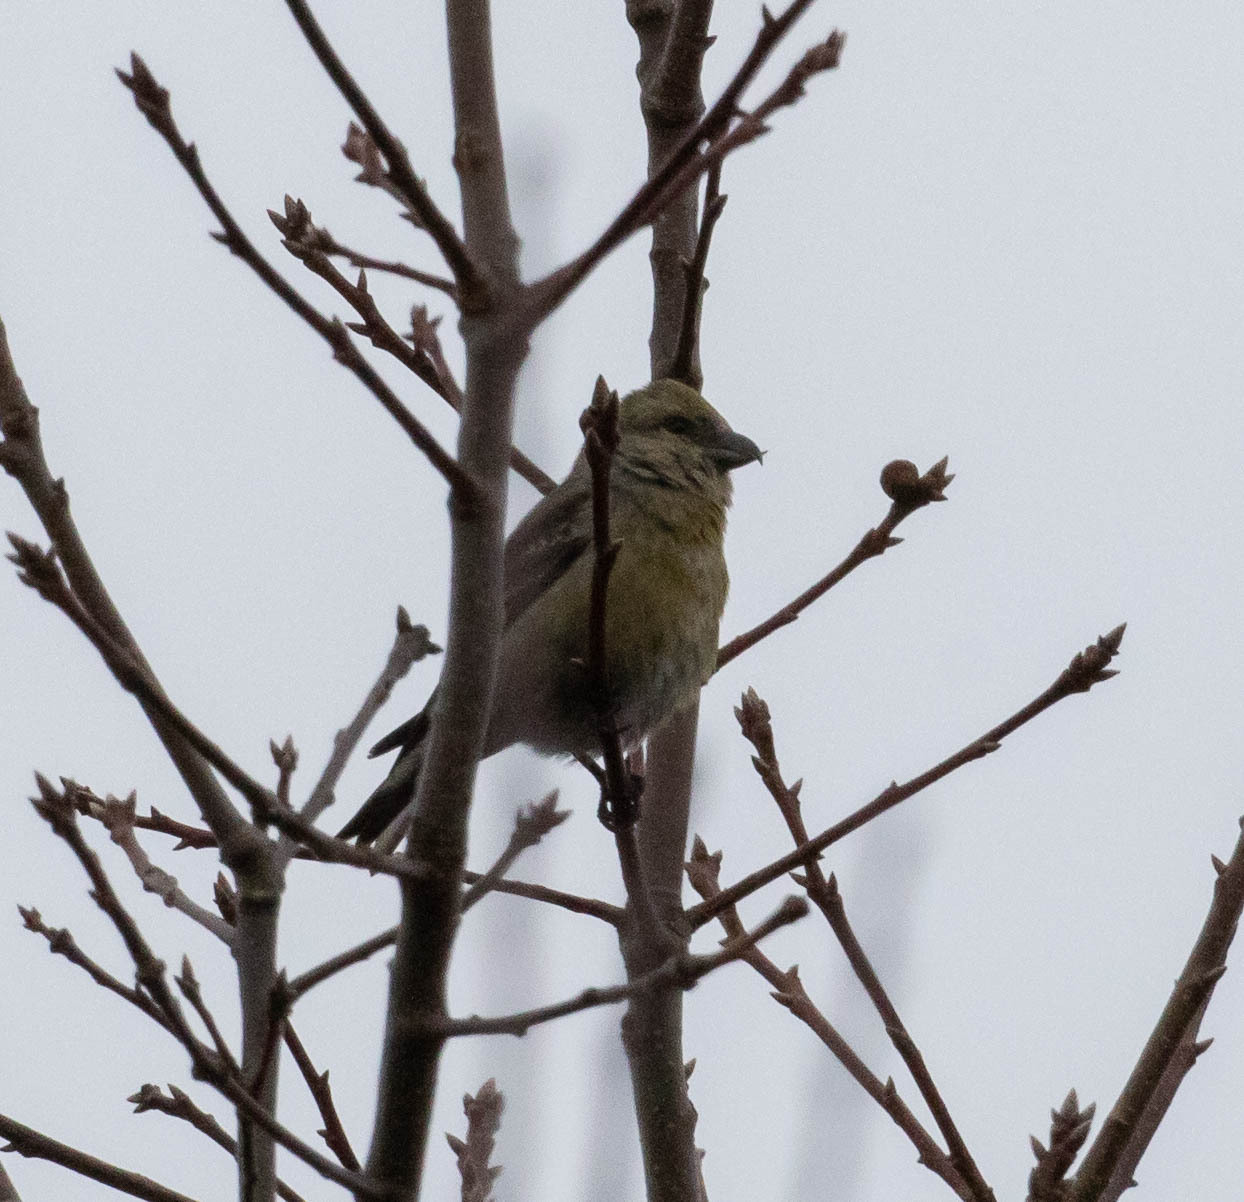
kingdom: Animalia
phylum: Chordata
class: Aves
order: Passeriformes
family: Fringillidae
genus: Loxia
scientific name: Loxia curvirostra
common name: Red crossbill
